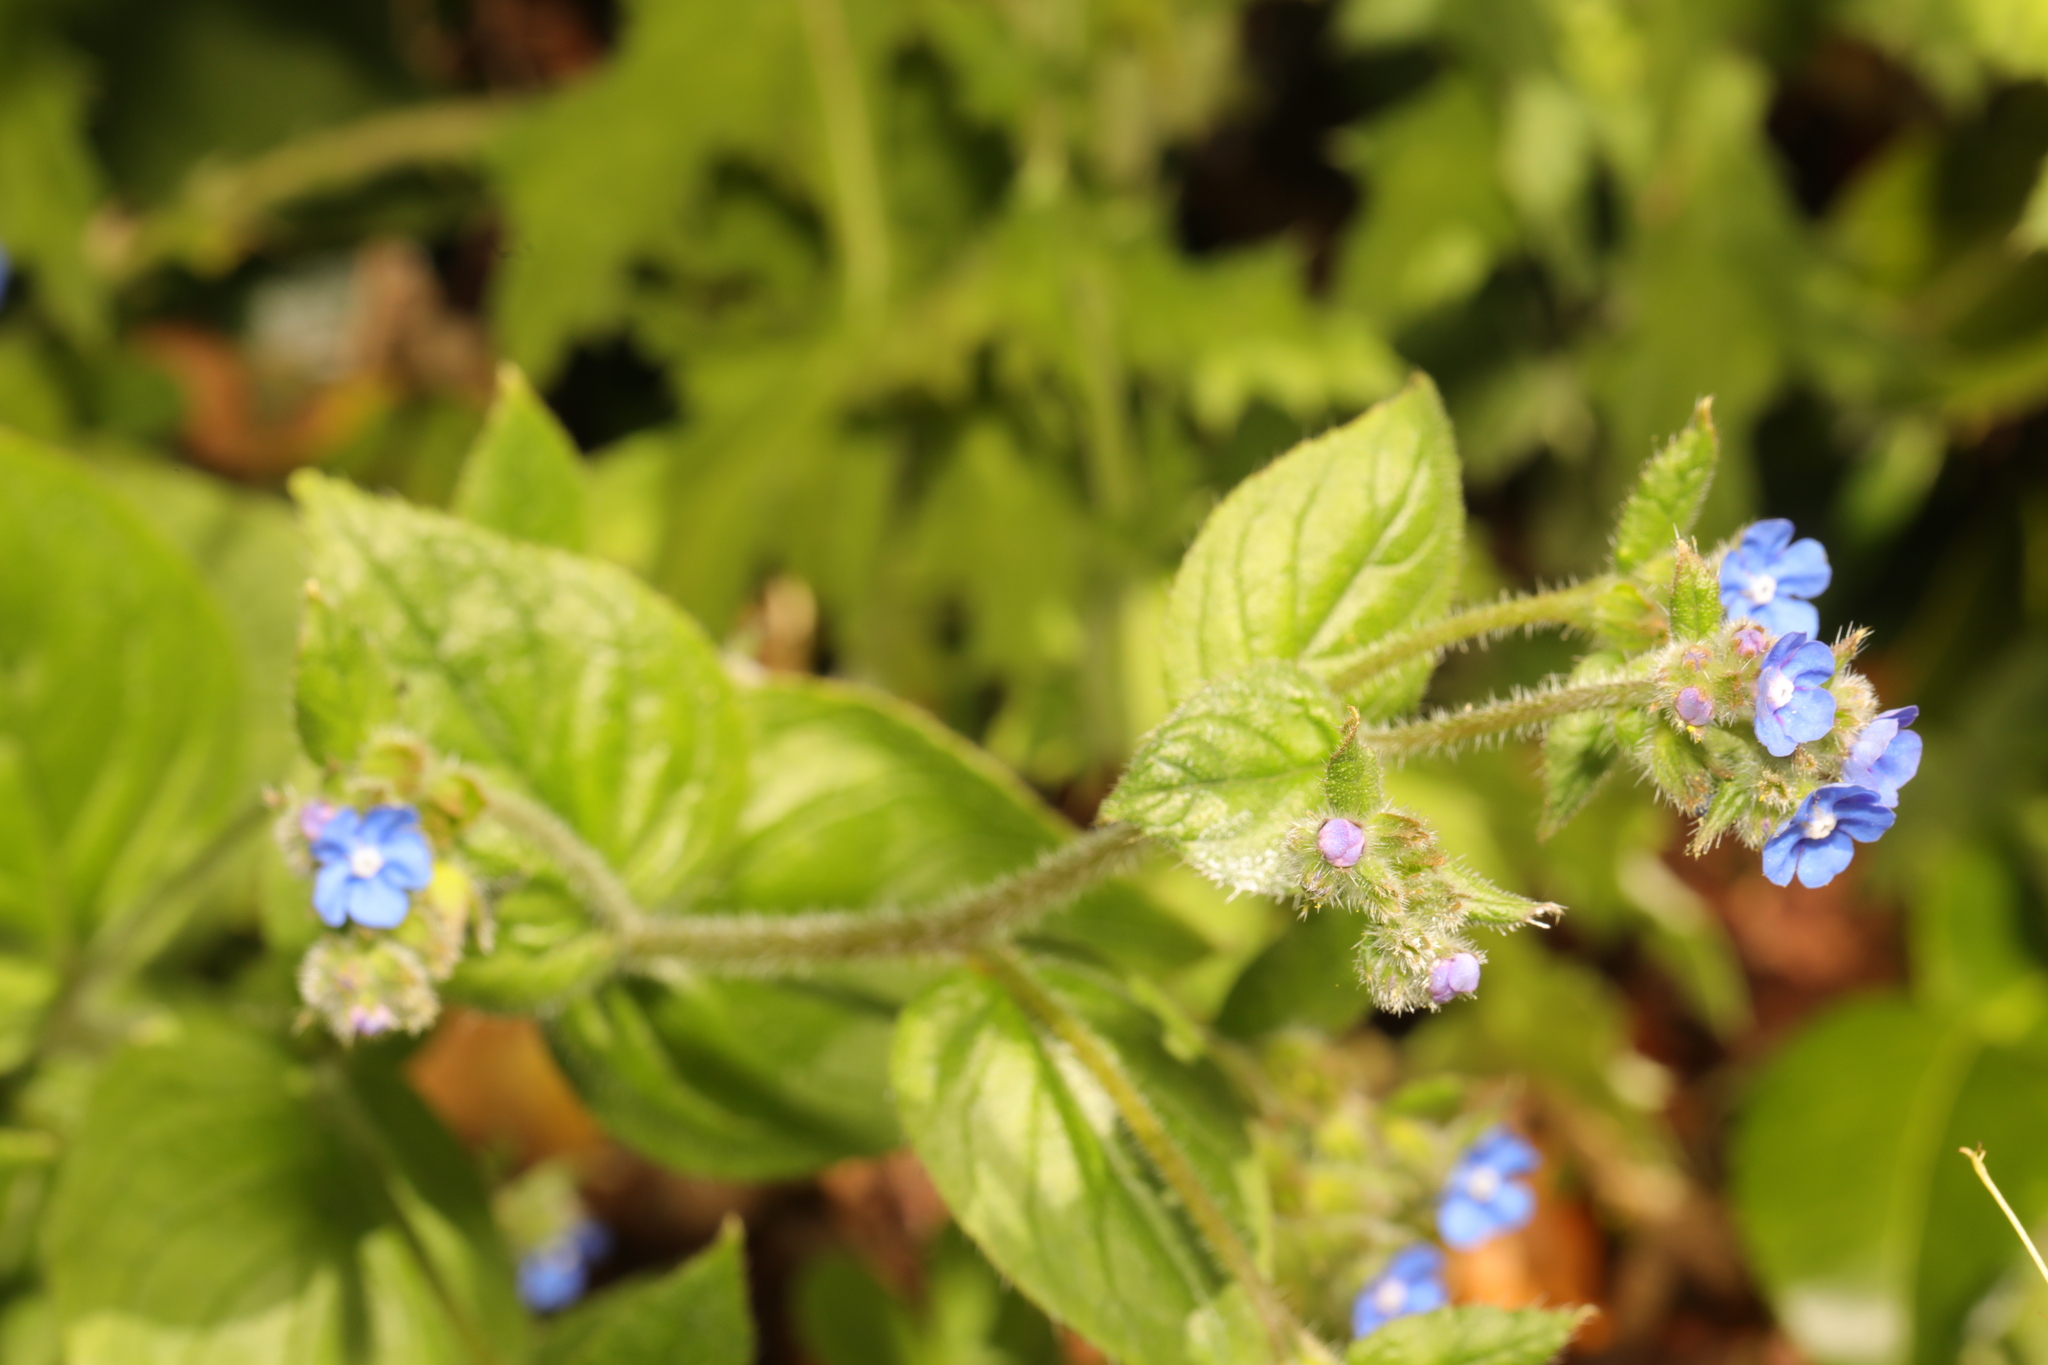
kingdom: Plantae
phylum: Tracheophyta
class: Magnoliopsida
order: Boraginales
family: Boraginaceae
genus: Pentaglottis
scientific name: Pentaglottis sempervirens
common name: Green alkanet
